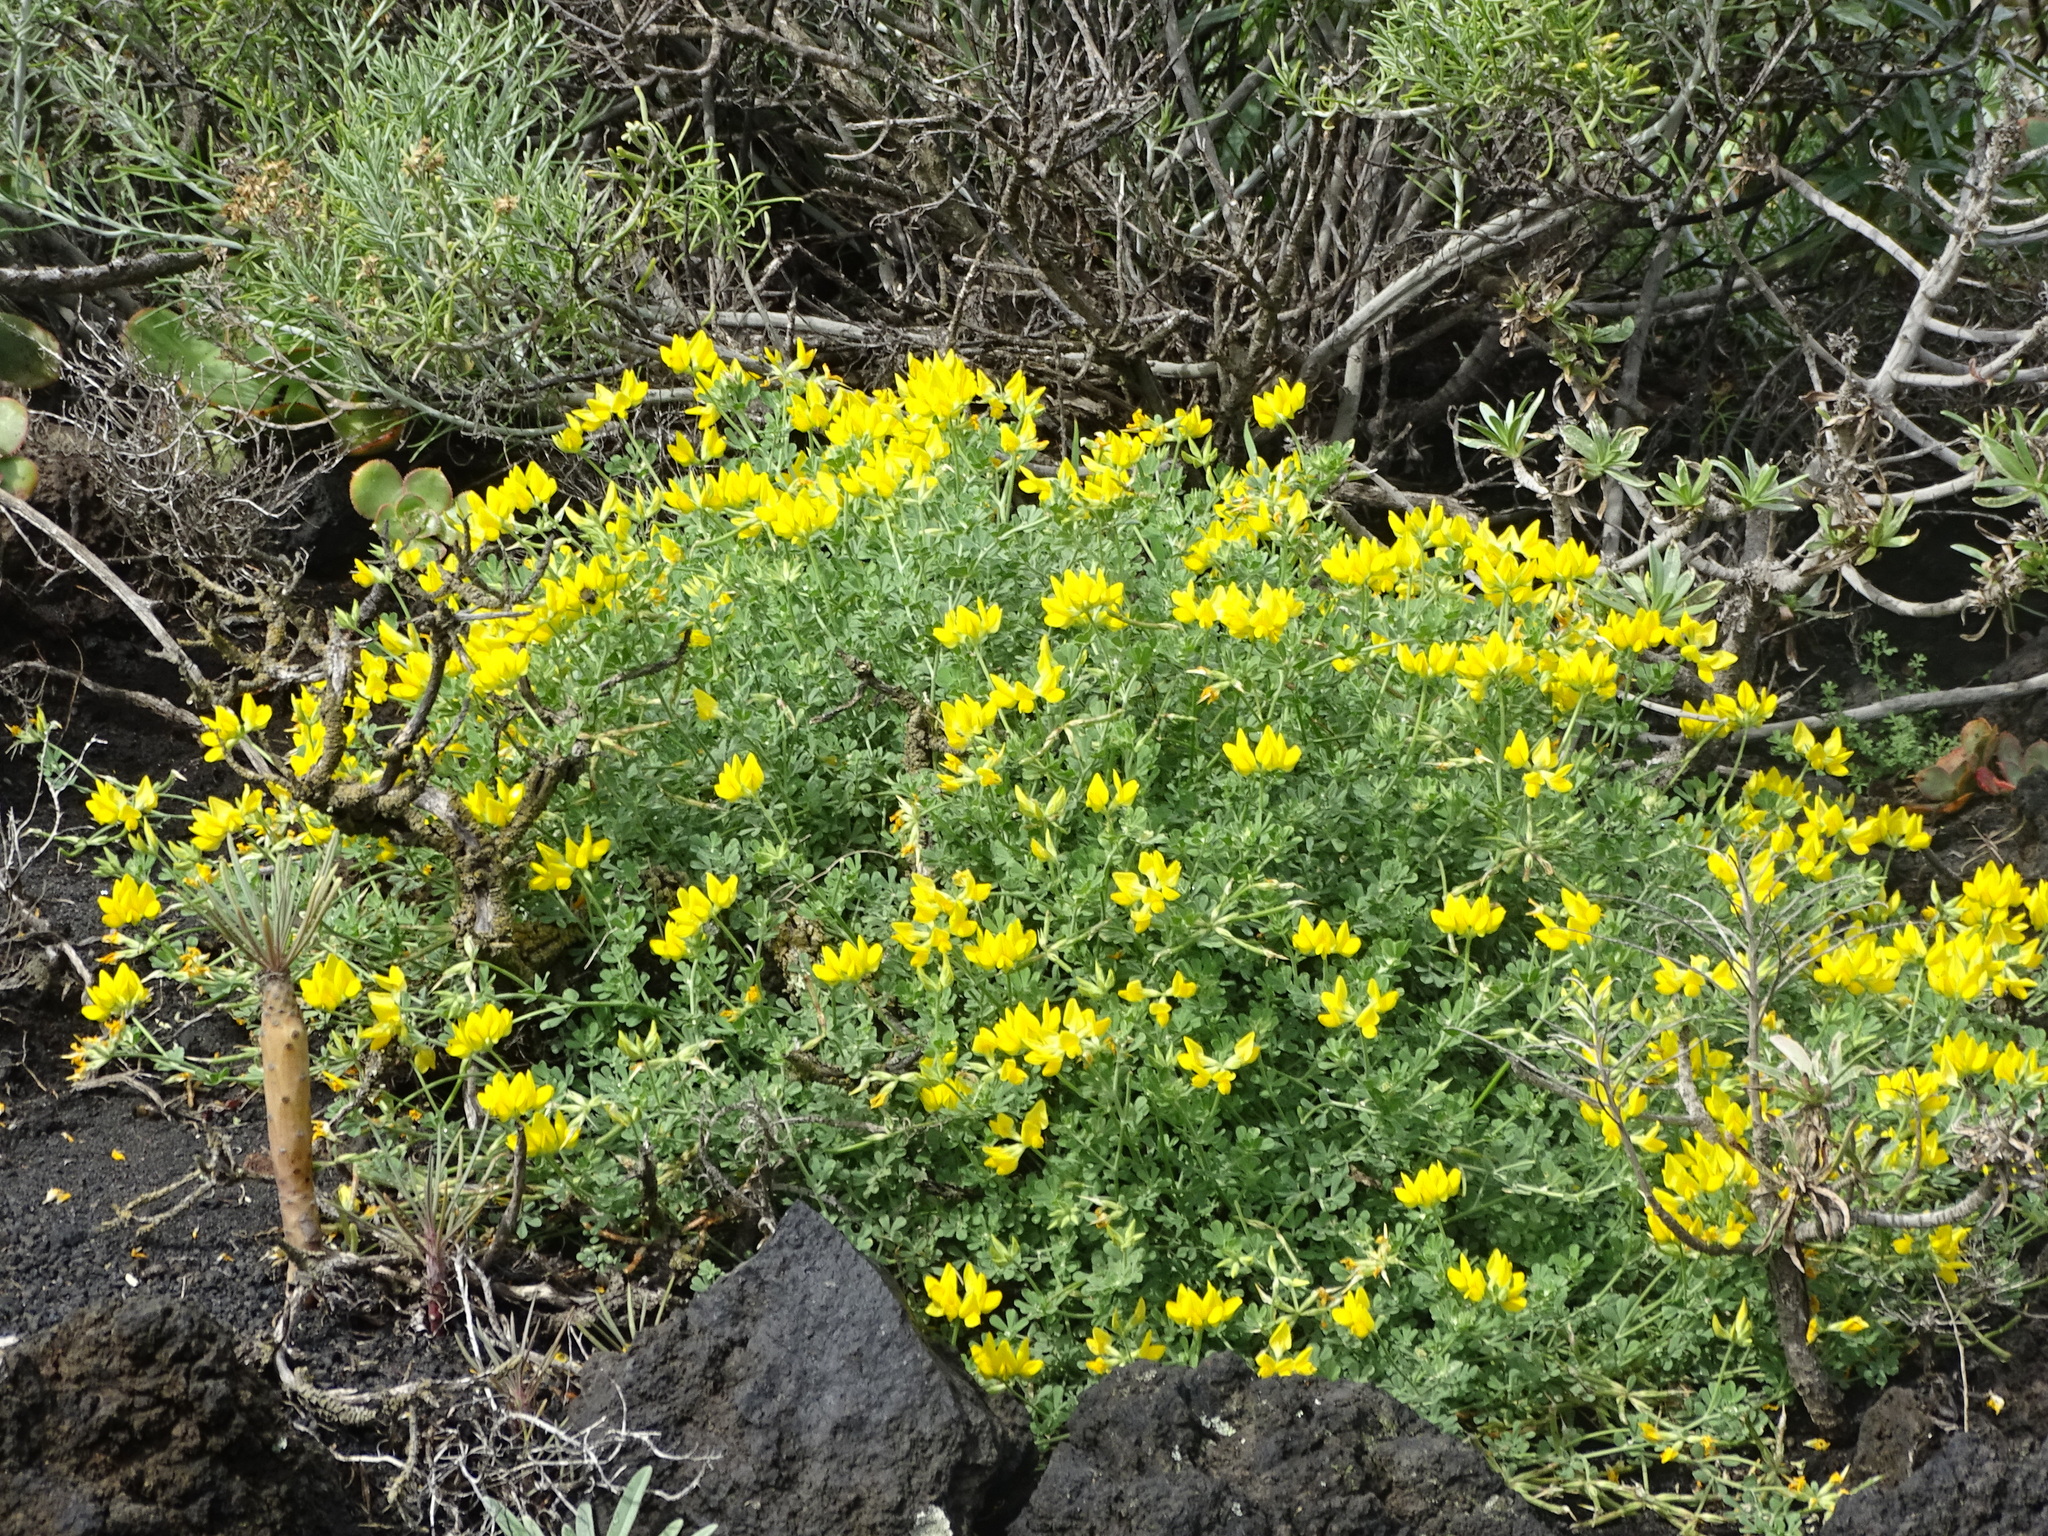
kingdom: Plantae
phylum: Tracheophyta
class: Magnoliopsida
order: Fabales
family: Fabaceae
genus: Lotus
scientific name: Lotus campylocladus
